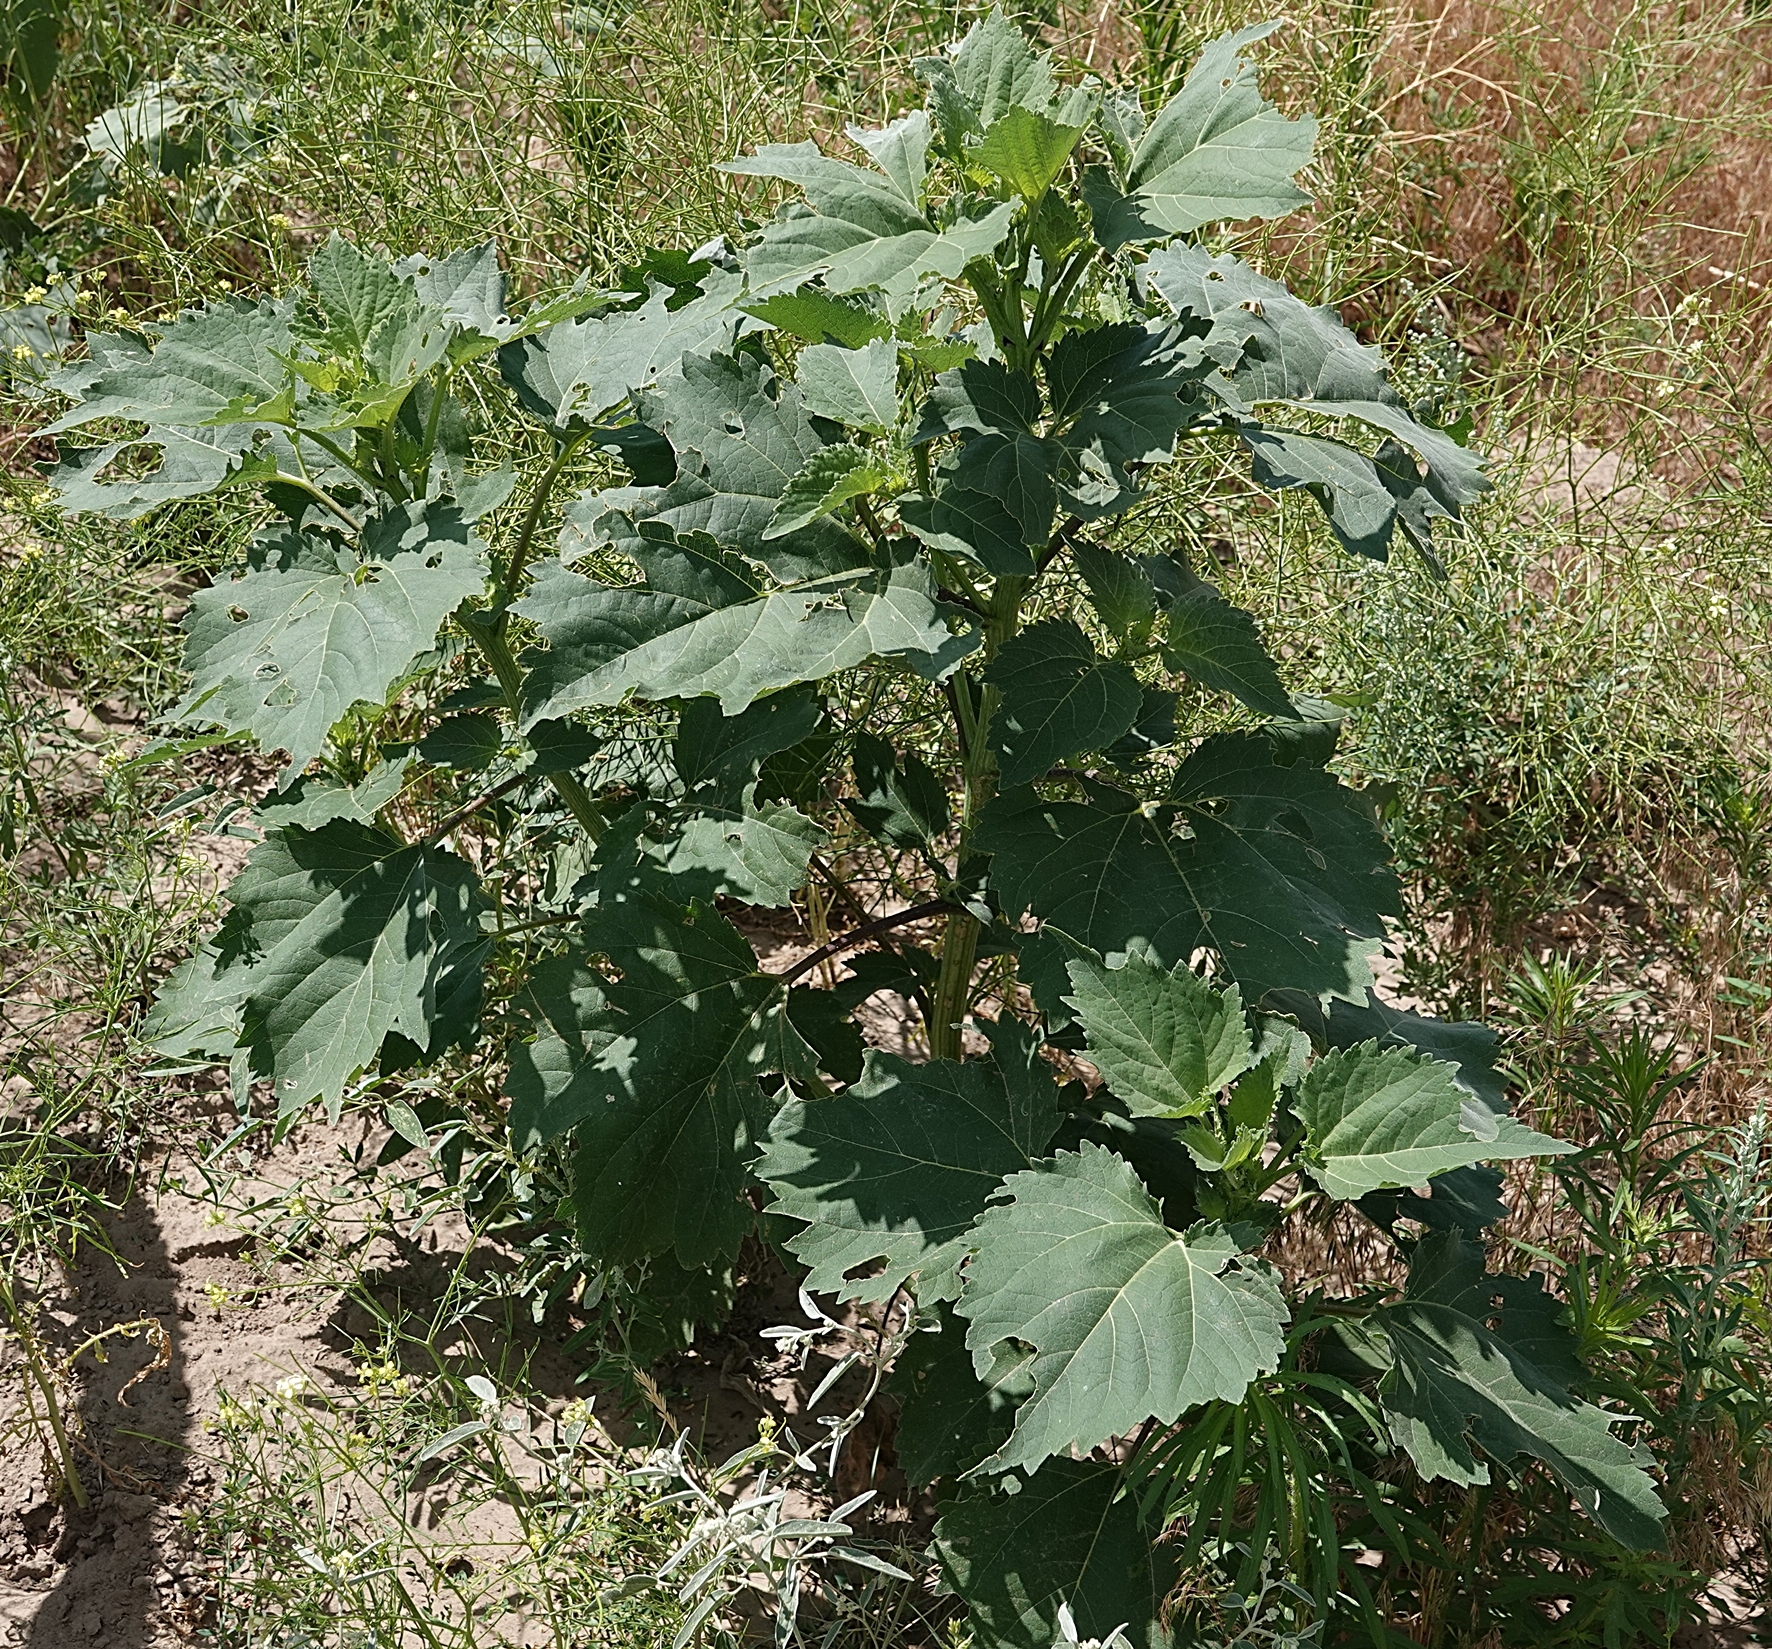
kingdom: Plantae
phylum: Tracheophyta
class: Magnoliopsida
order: Asterales
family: Asteraceae
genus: Cyclachaena
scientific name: Cyclachaena xanthiifolia
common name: Giant sumpweed
